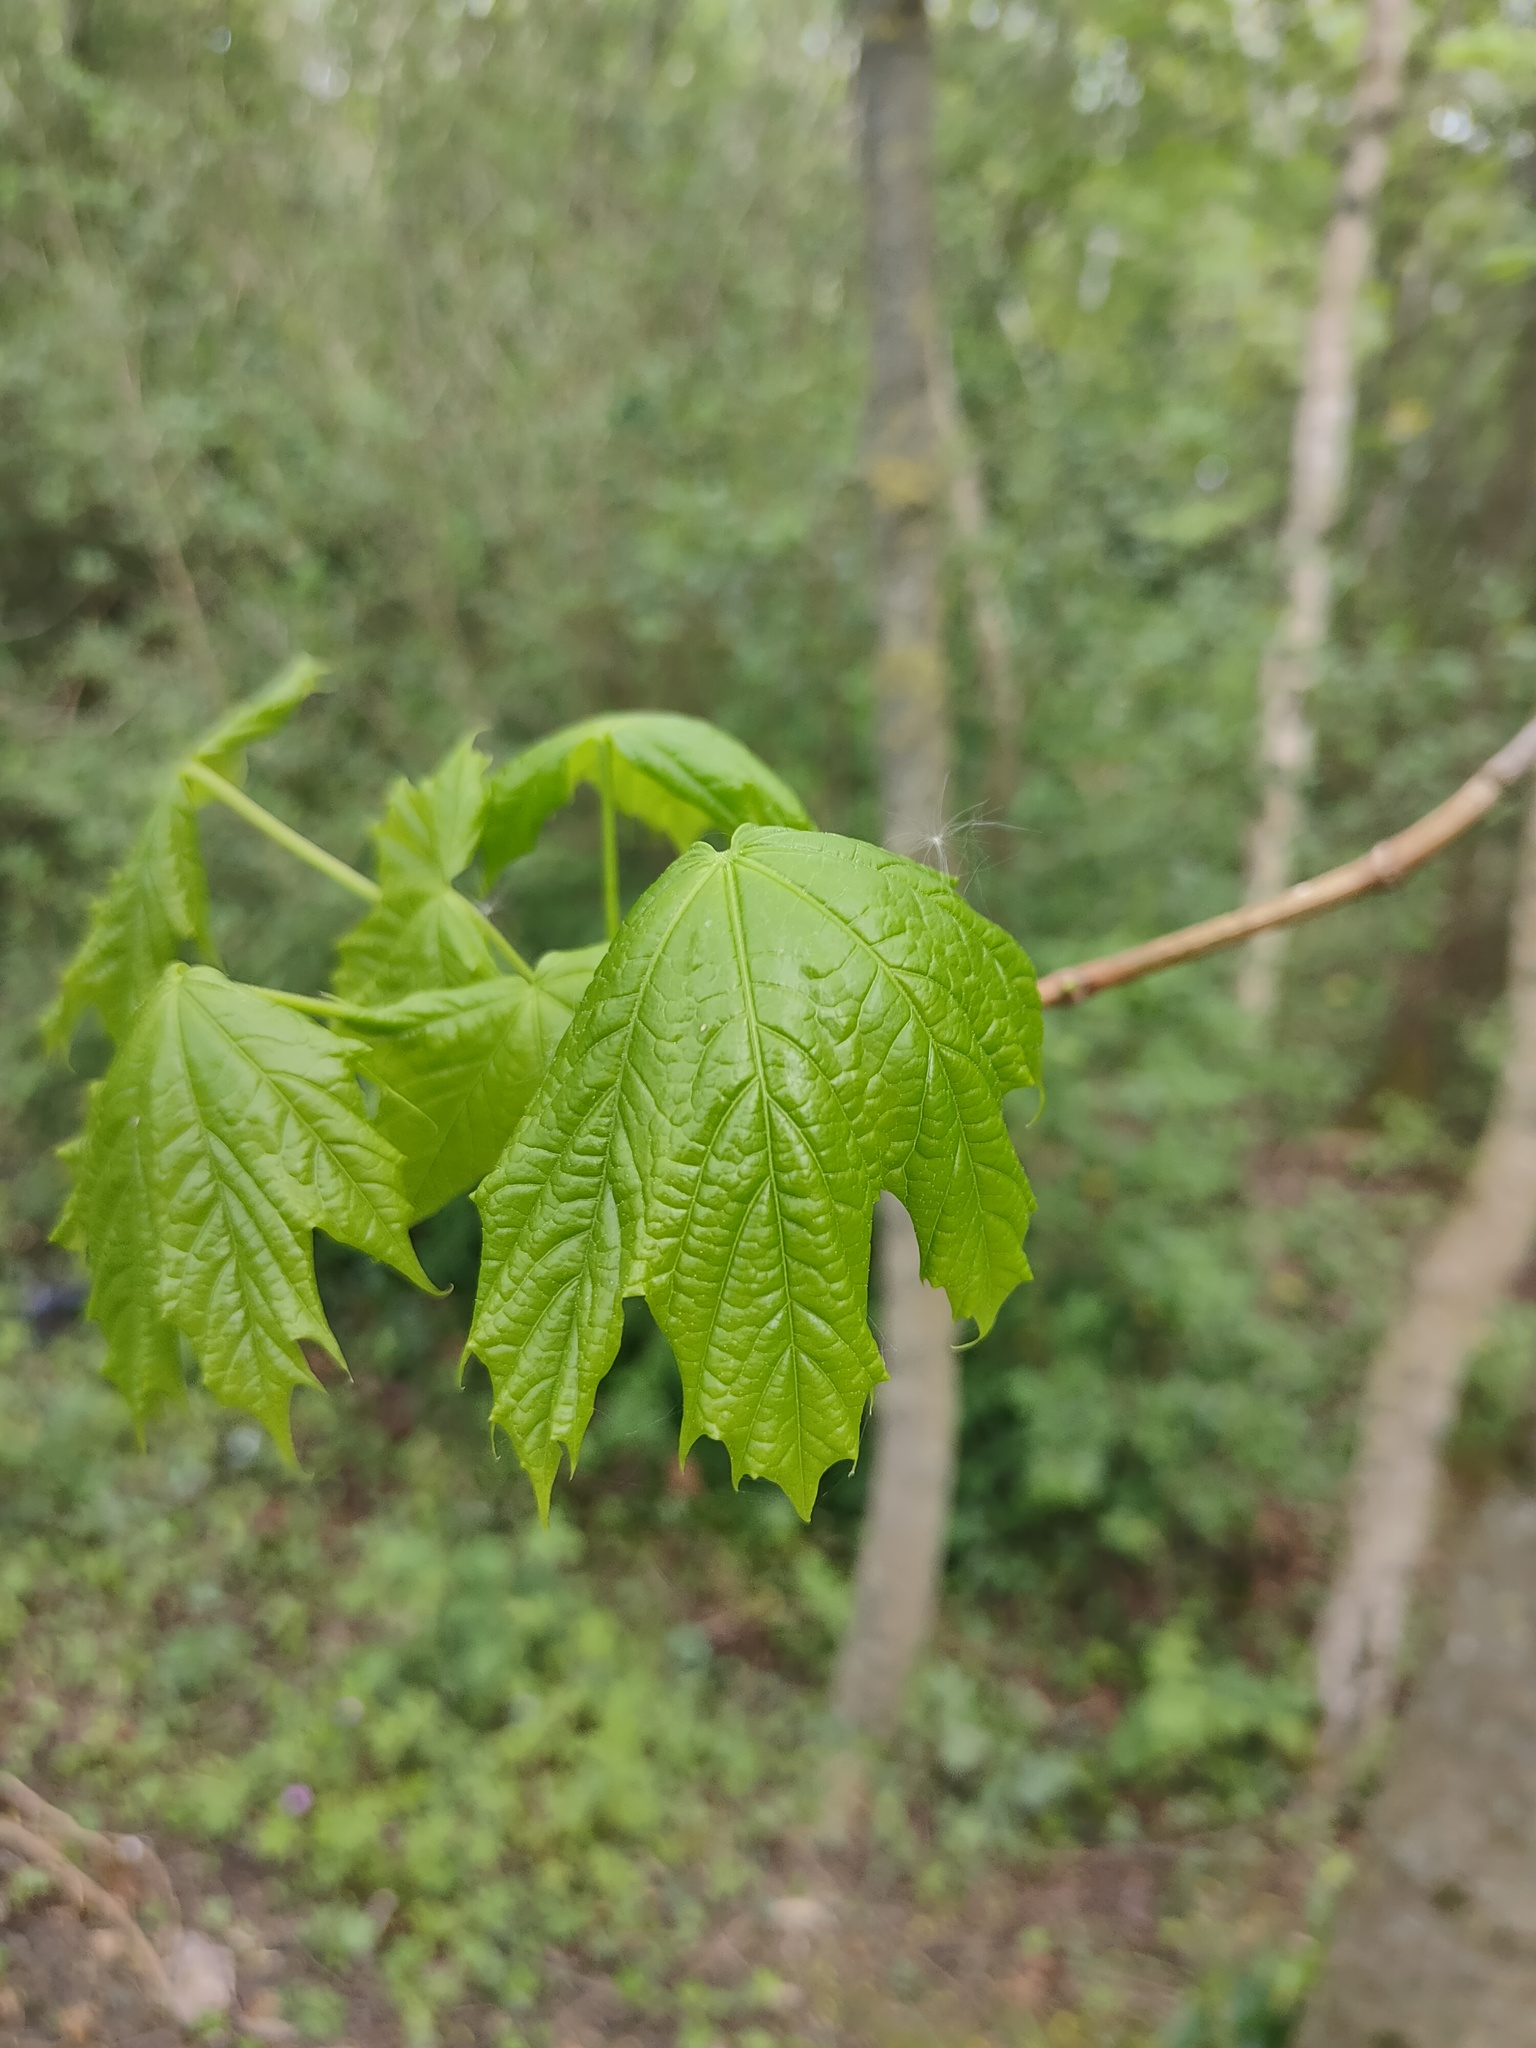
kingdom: Plantae
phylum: Tracheophyta
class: Magnoliopsida
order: Sapindales
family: Sapindaceae
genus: Acer
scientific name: Acer platanoides
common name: Norway maple
